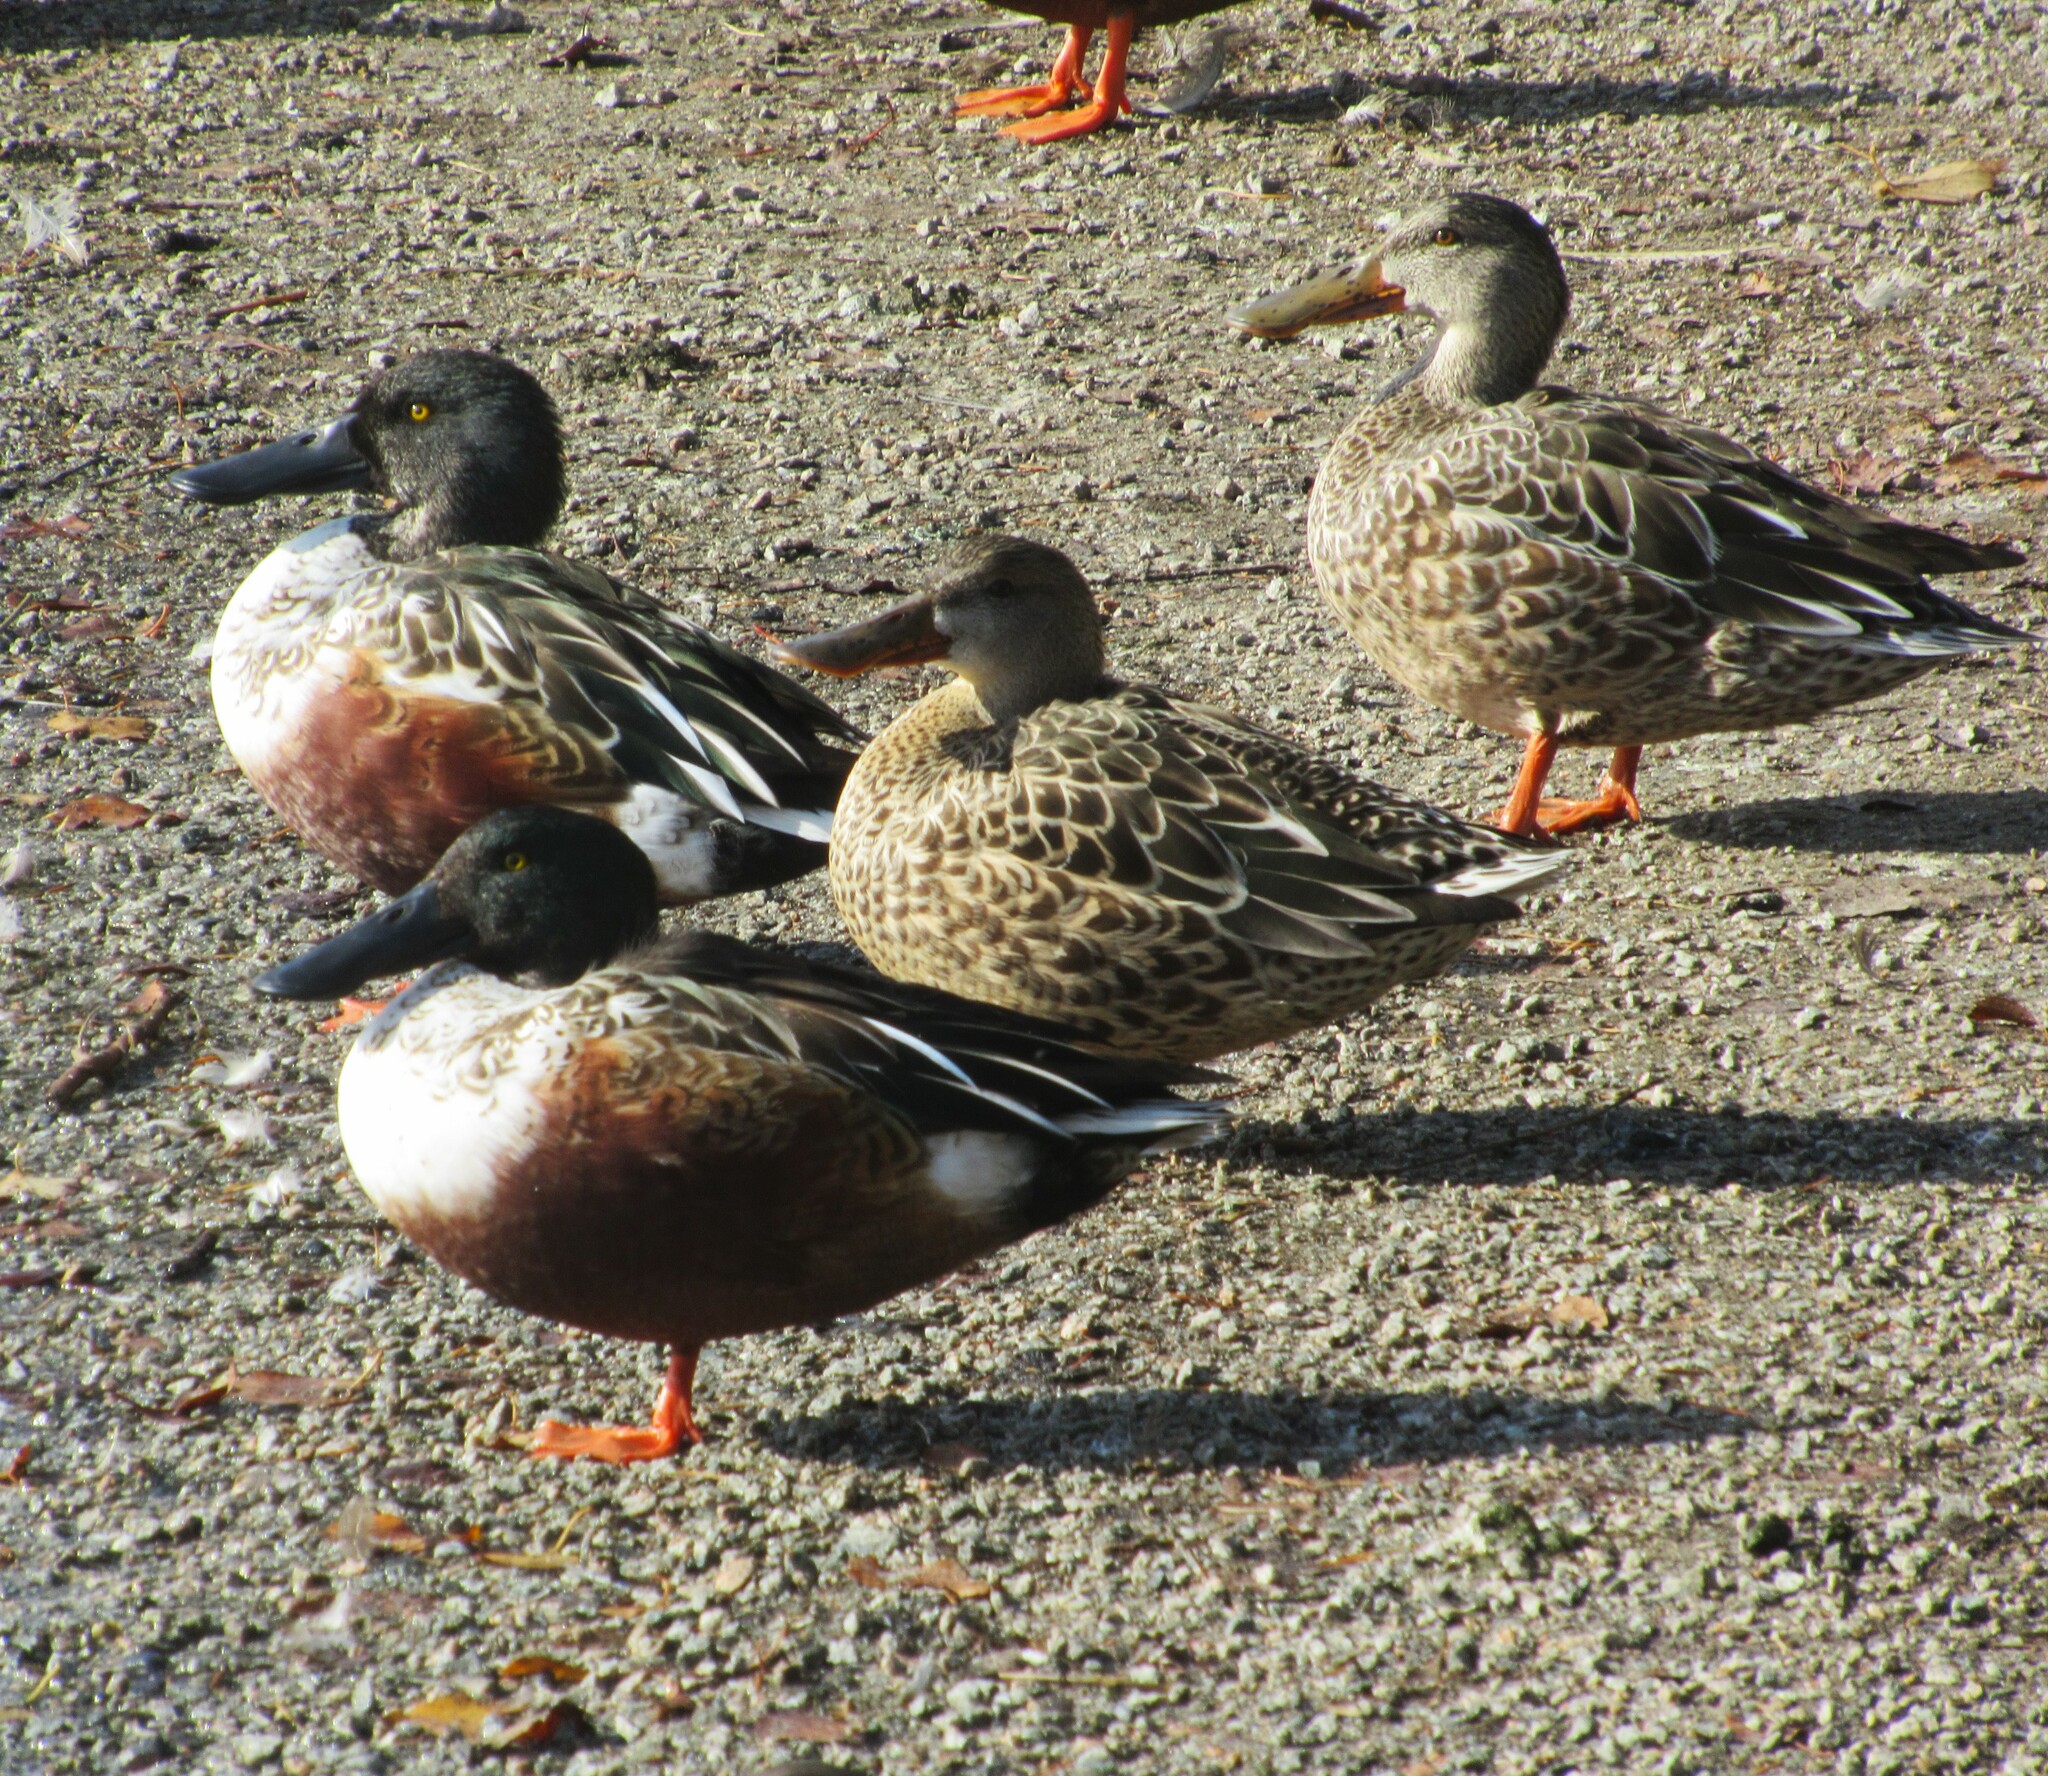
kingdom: Animalia
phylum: Chordata
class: Aves
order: Anseriformes
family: Anatidae
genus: Spatula
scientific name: Spatula clypeata
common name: Northern shoveler
